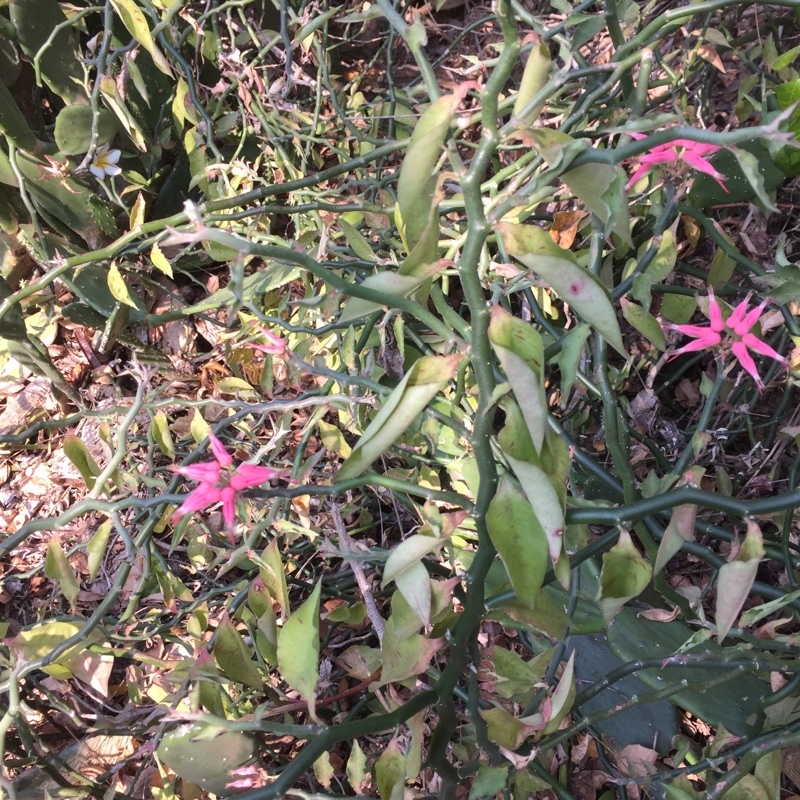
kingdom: Plantae
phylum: Tracheophyta
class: Magnoliopsida
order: Malpighiales
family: Euphorbiaceae
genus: Euphorbia
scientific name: Euphorbia tithymaloides
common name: Slipperplant
